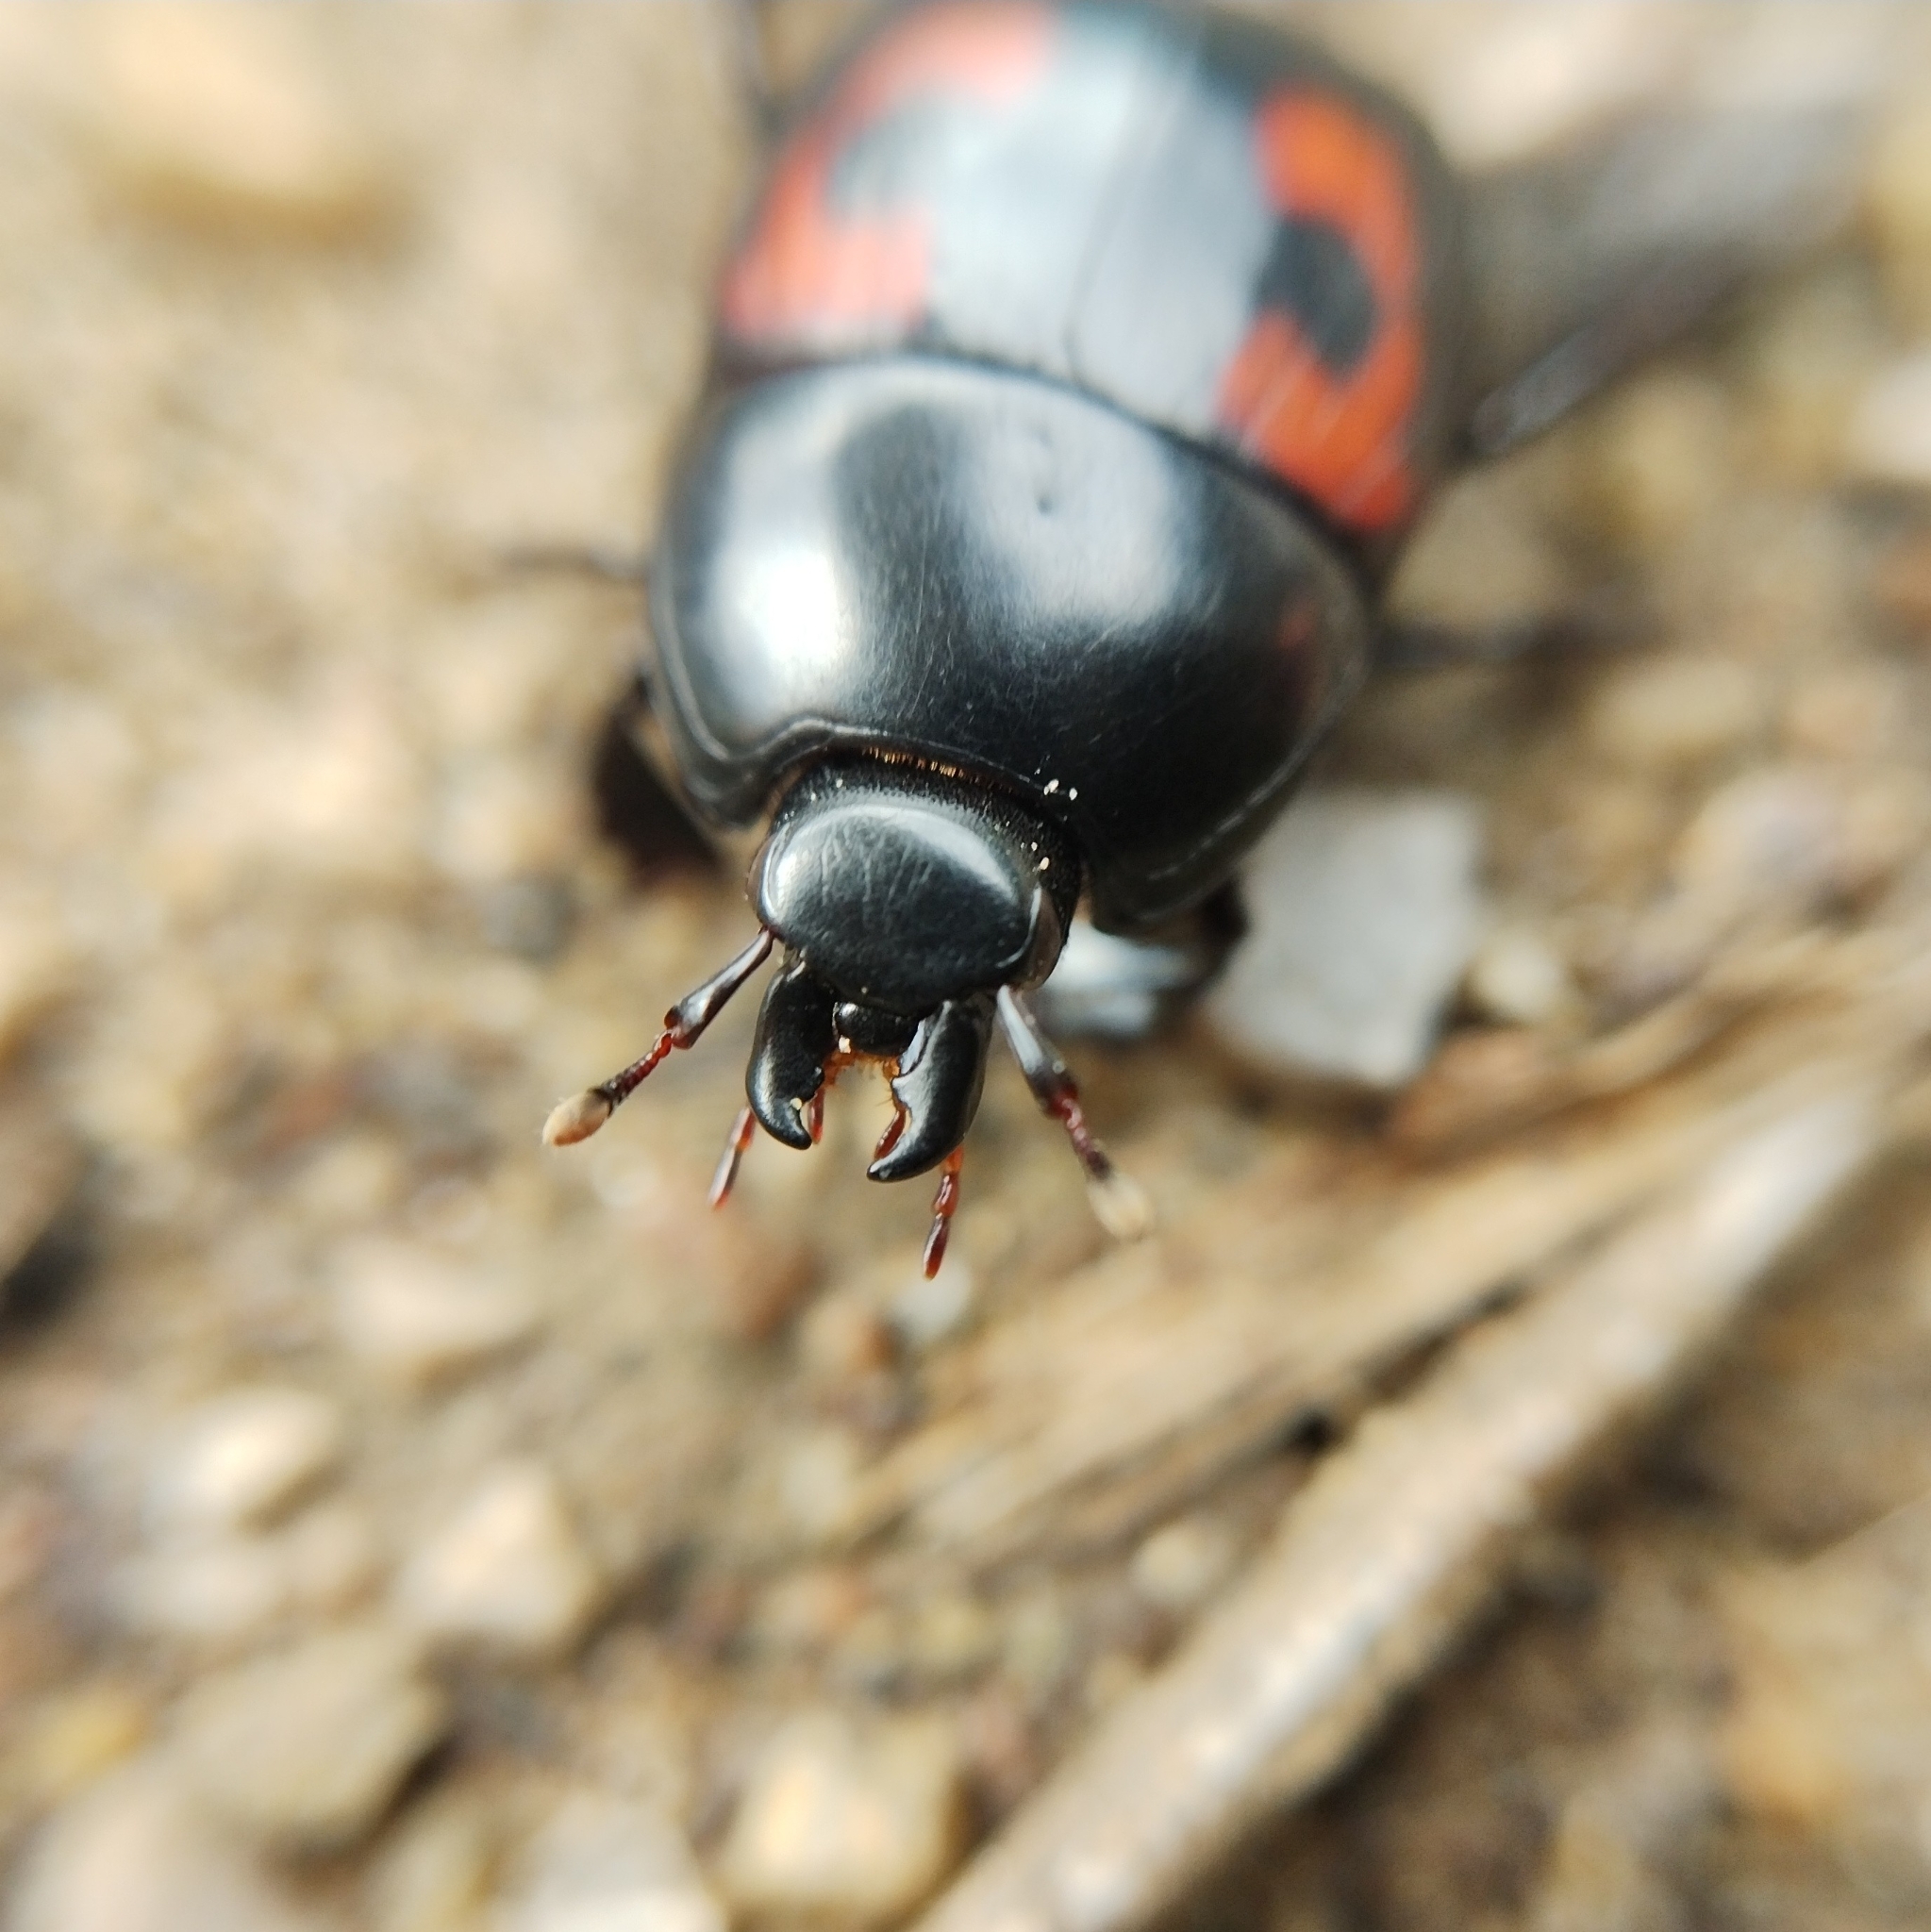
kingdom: Animalia
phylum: Arthropoda
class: Insecta
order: Coleoptera
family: Histeridae
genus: Hister
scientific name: Hister quadrimaculatus
